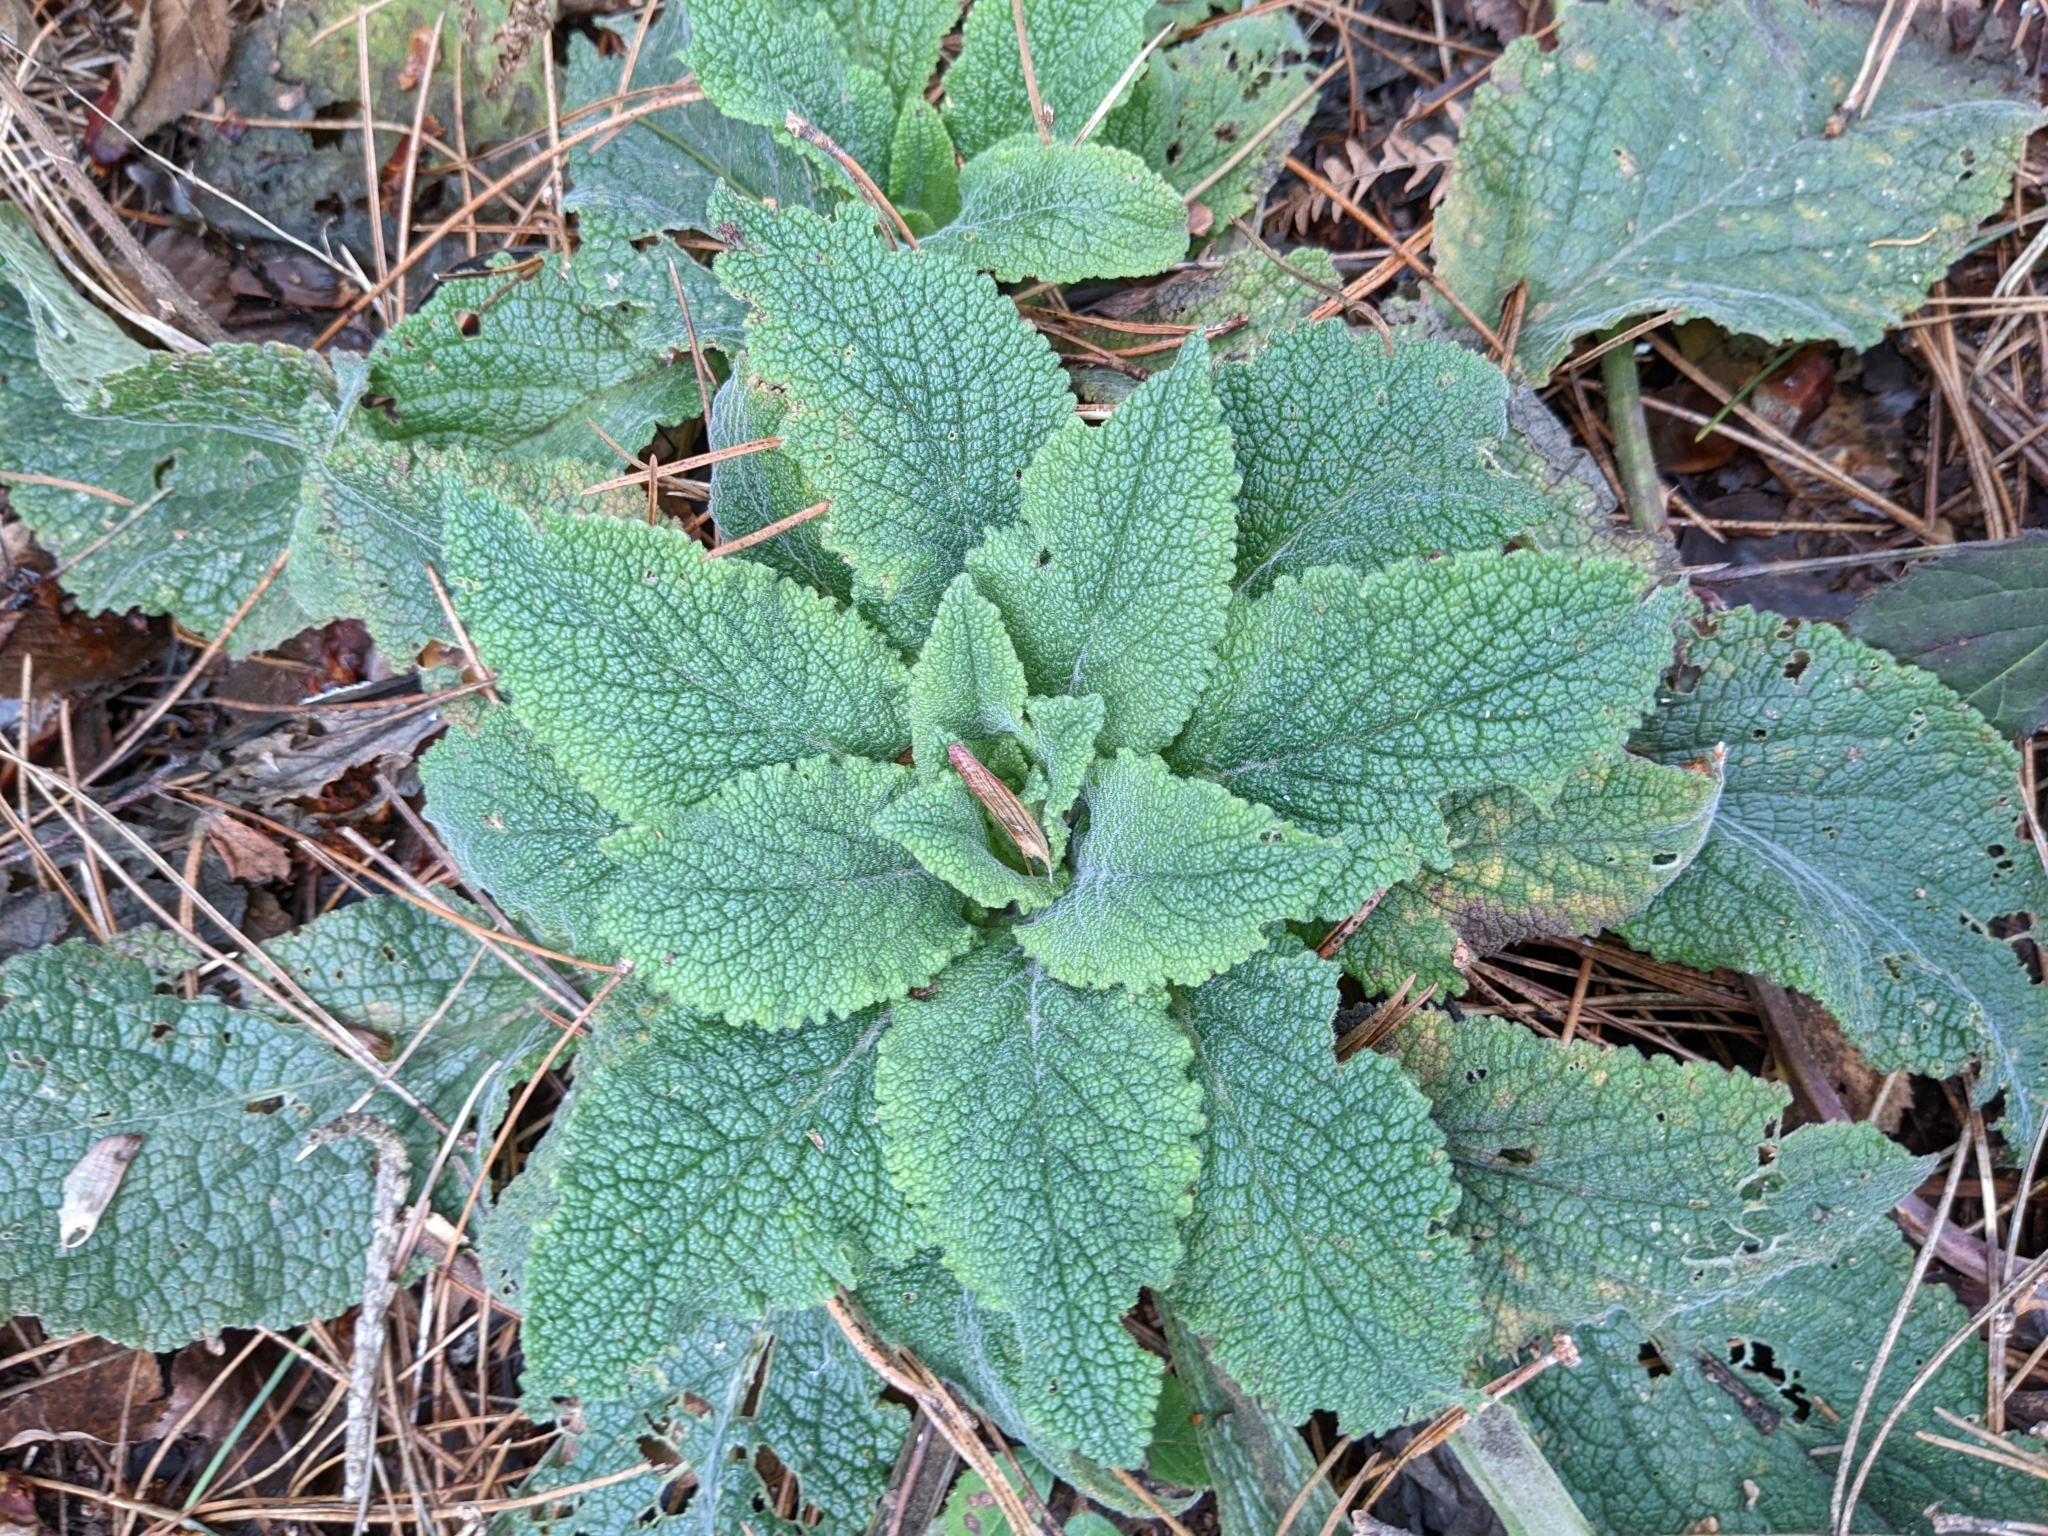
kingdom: Plantae
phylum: Tracheophyta
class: Magnoliopsida
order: Lamiales
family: Plantaginaceae
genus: Digitalis
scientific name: Digitalis purpurea
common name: Foxglove
